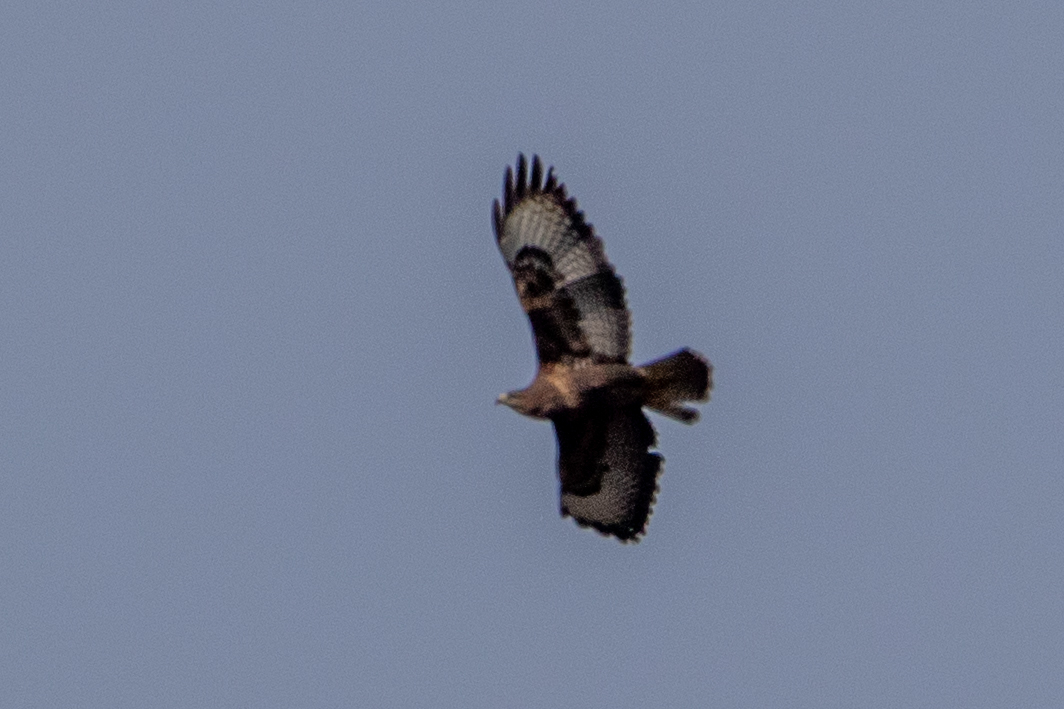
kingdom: Animalia
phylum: Chordata
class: Aves
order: Accipitriformes
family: Accipitridae
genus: Buteo
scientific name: Buteo buteo
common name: Common buzzard
